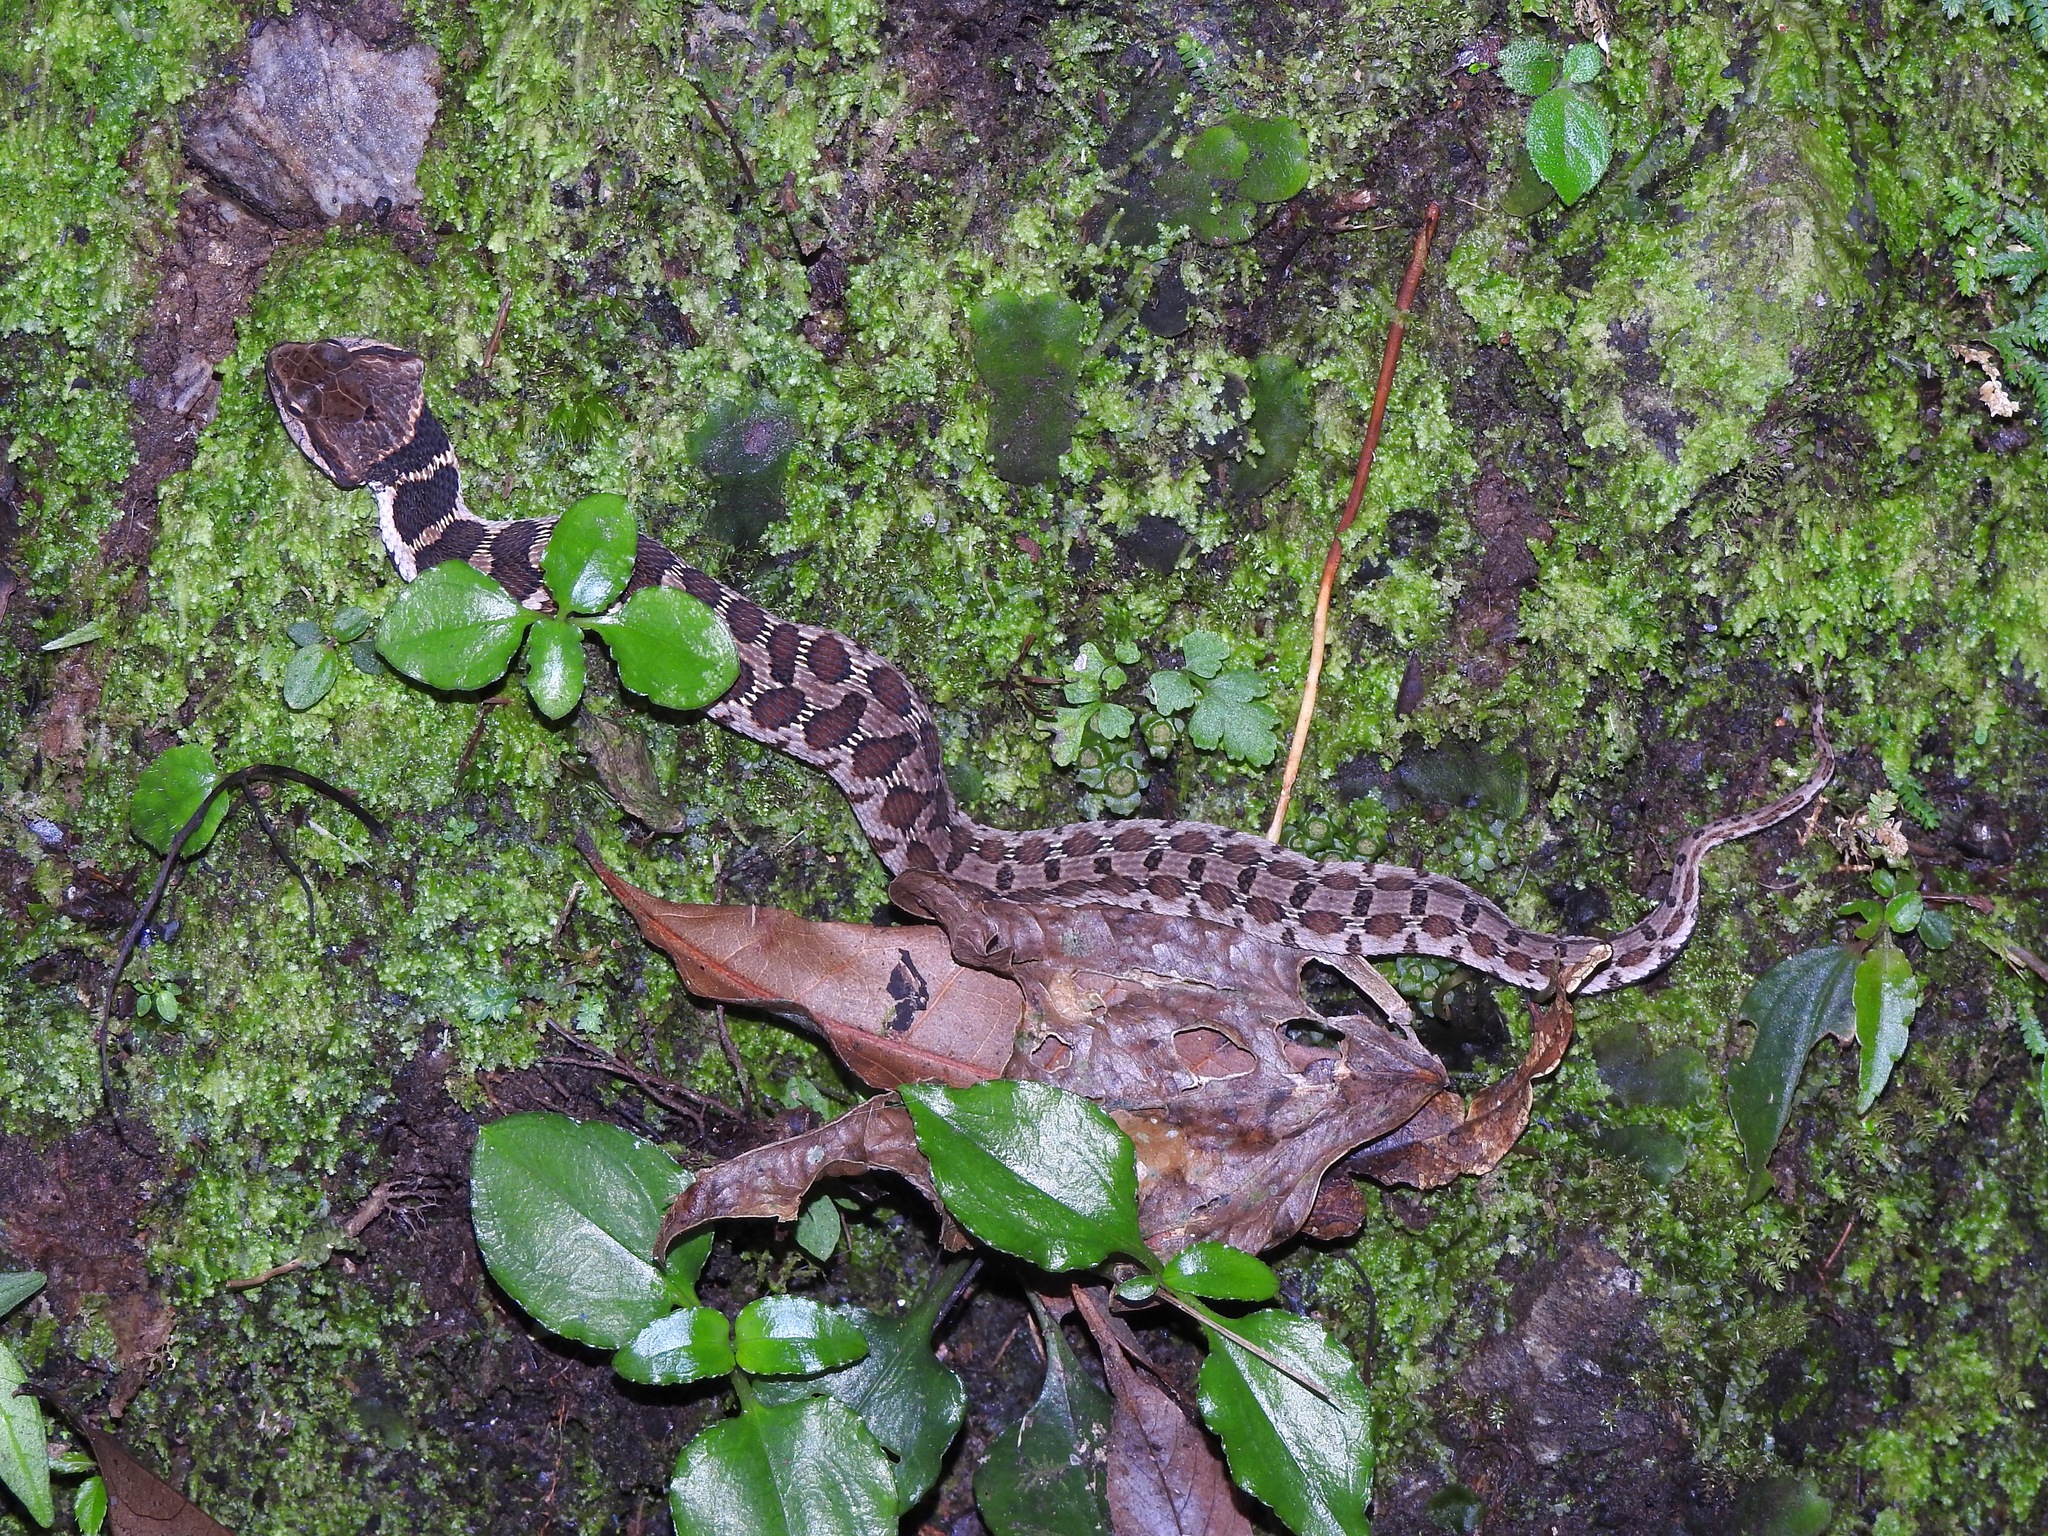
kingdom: Animalia
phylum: Chordata
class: Squamata
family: Colubridae
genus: Pseudagkistrodon
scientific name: Pseudagkistrodon rudis
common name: False habu
